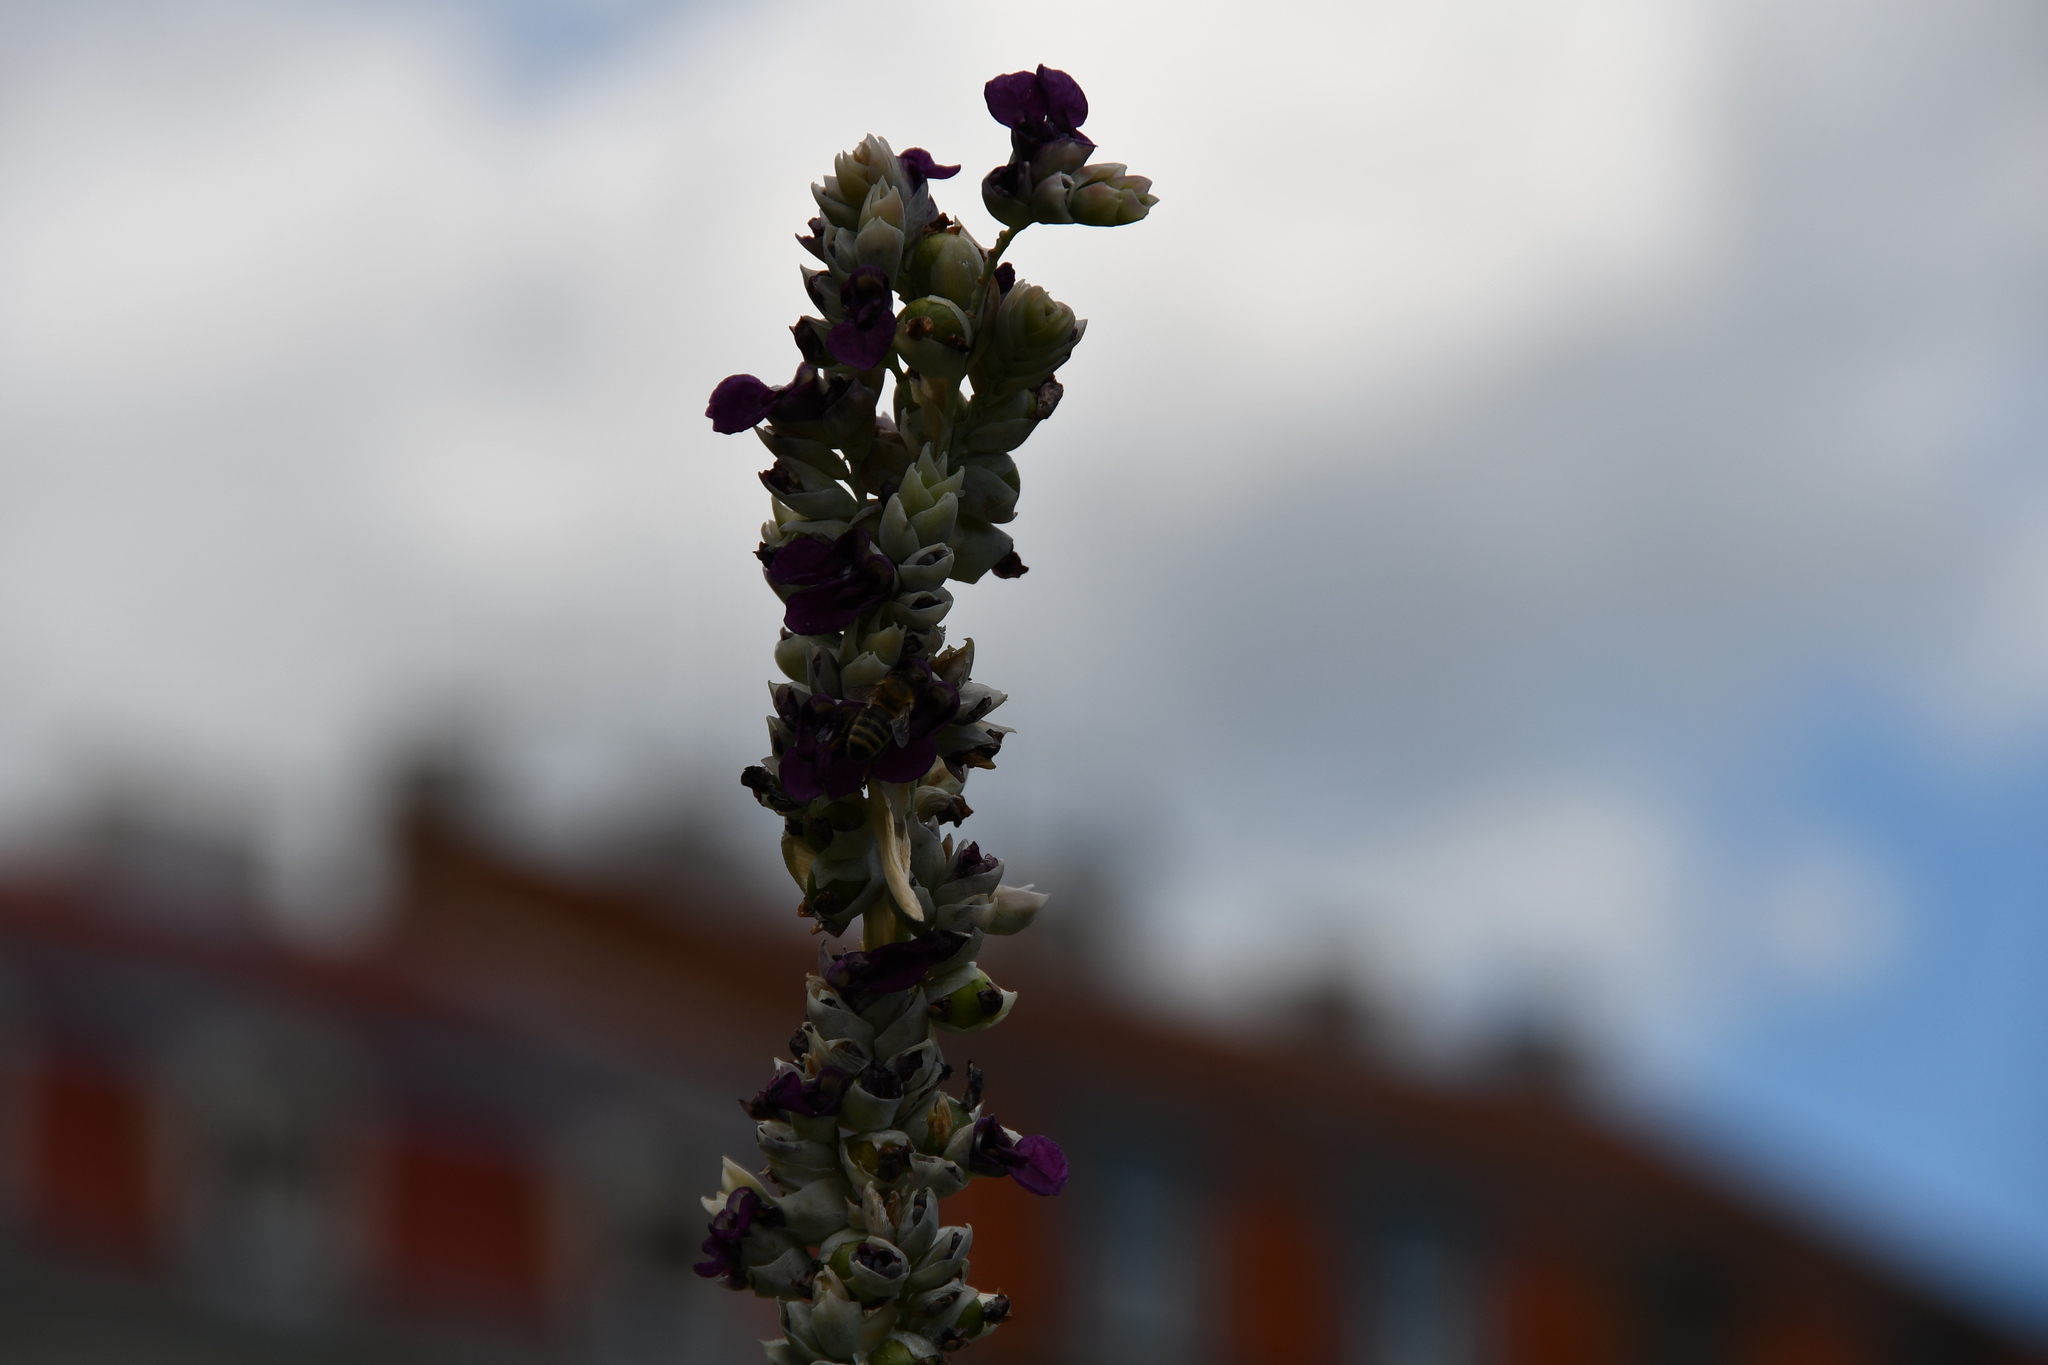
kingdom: Animalia
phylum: Arthropoda
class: Insecta
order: Hymenoptera
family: Apidae
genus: Apis
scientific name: Apis mellifera
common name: Honey bee
